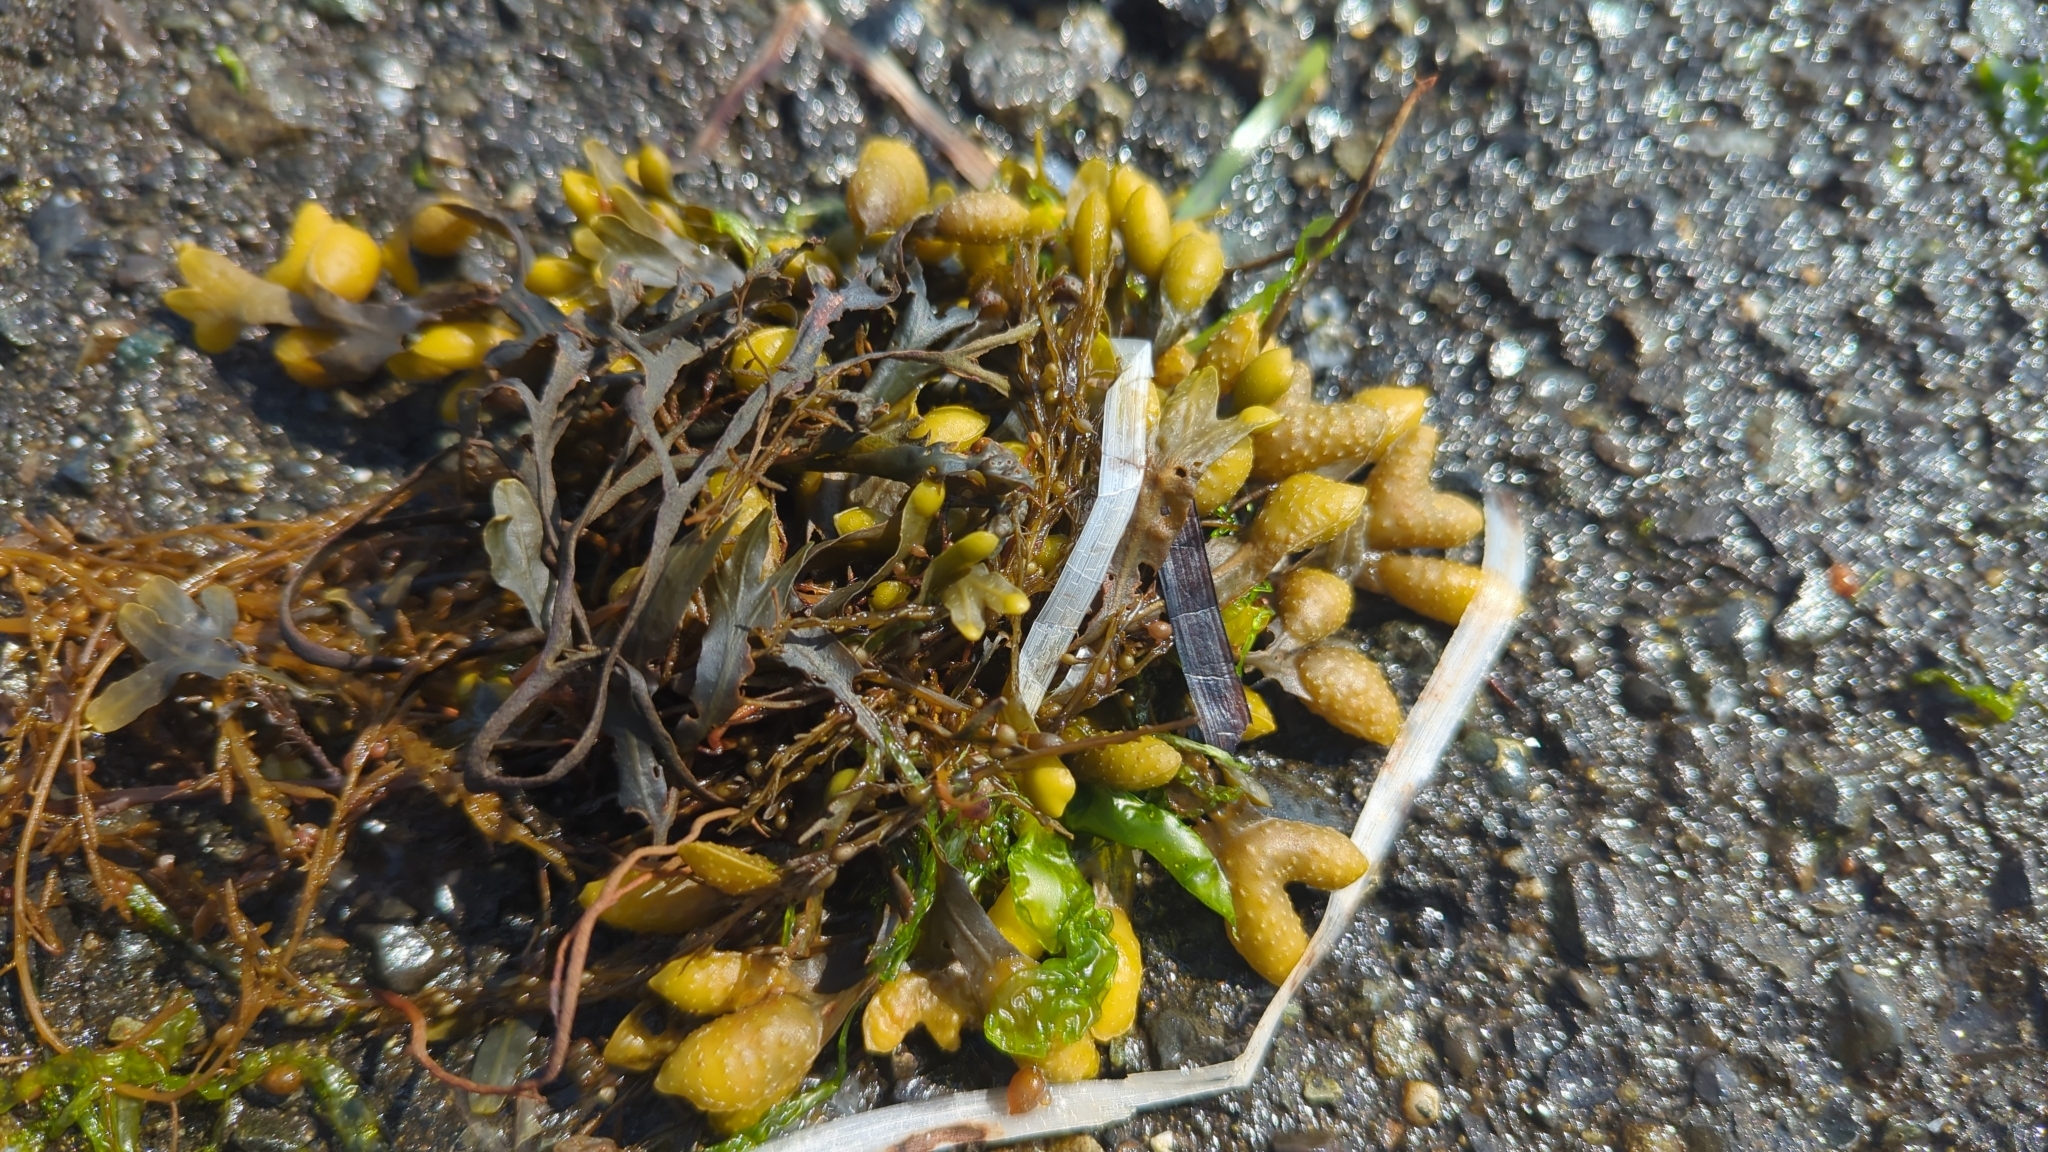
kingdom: Chromista
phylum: Ochrophyta
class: Phaeophyceae
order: Fucales
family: Fucaceae
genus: Fucus
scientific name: Fucus distichus
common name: Rockweed
